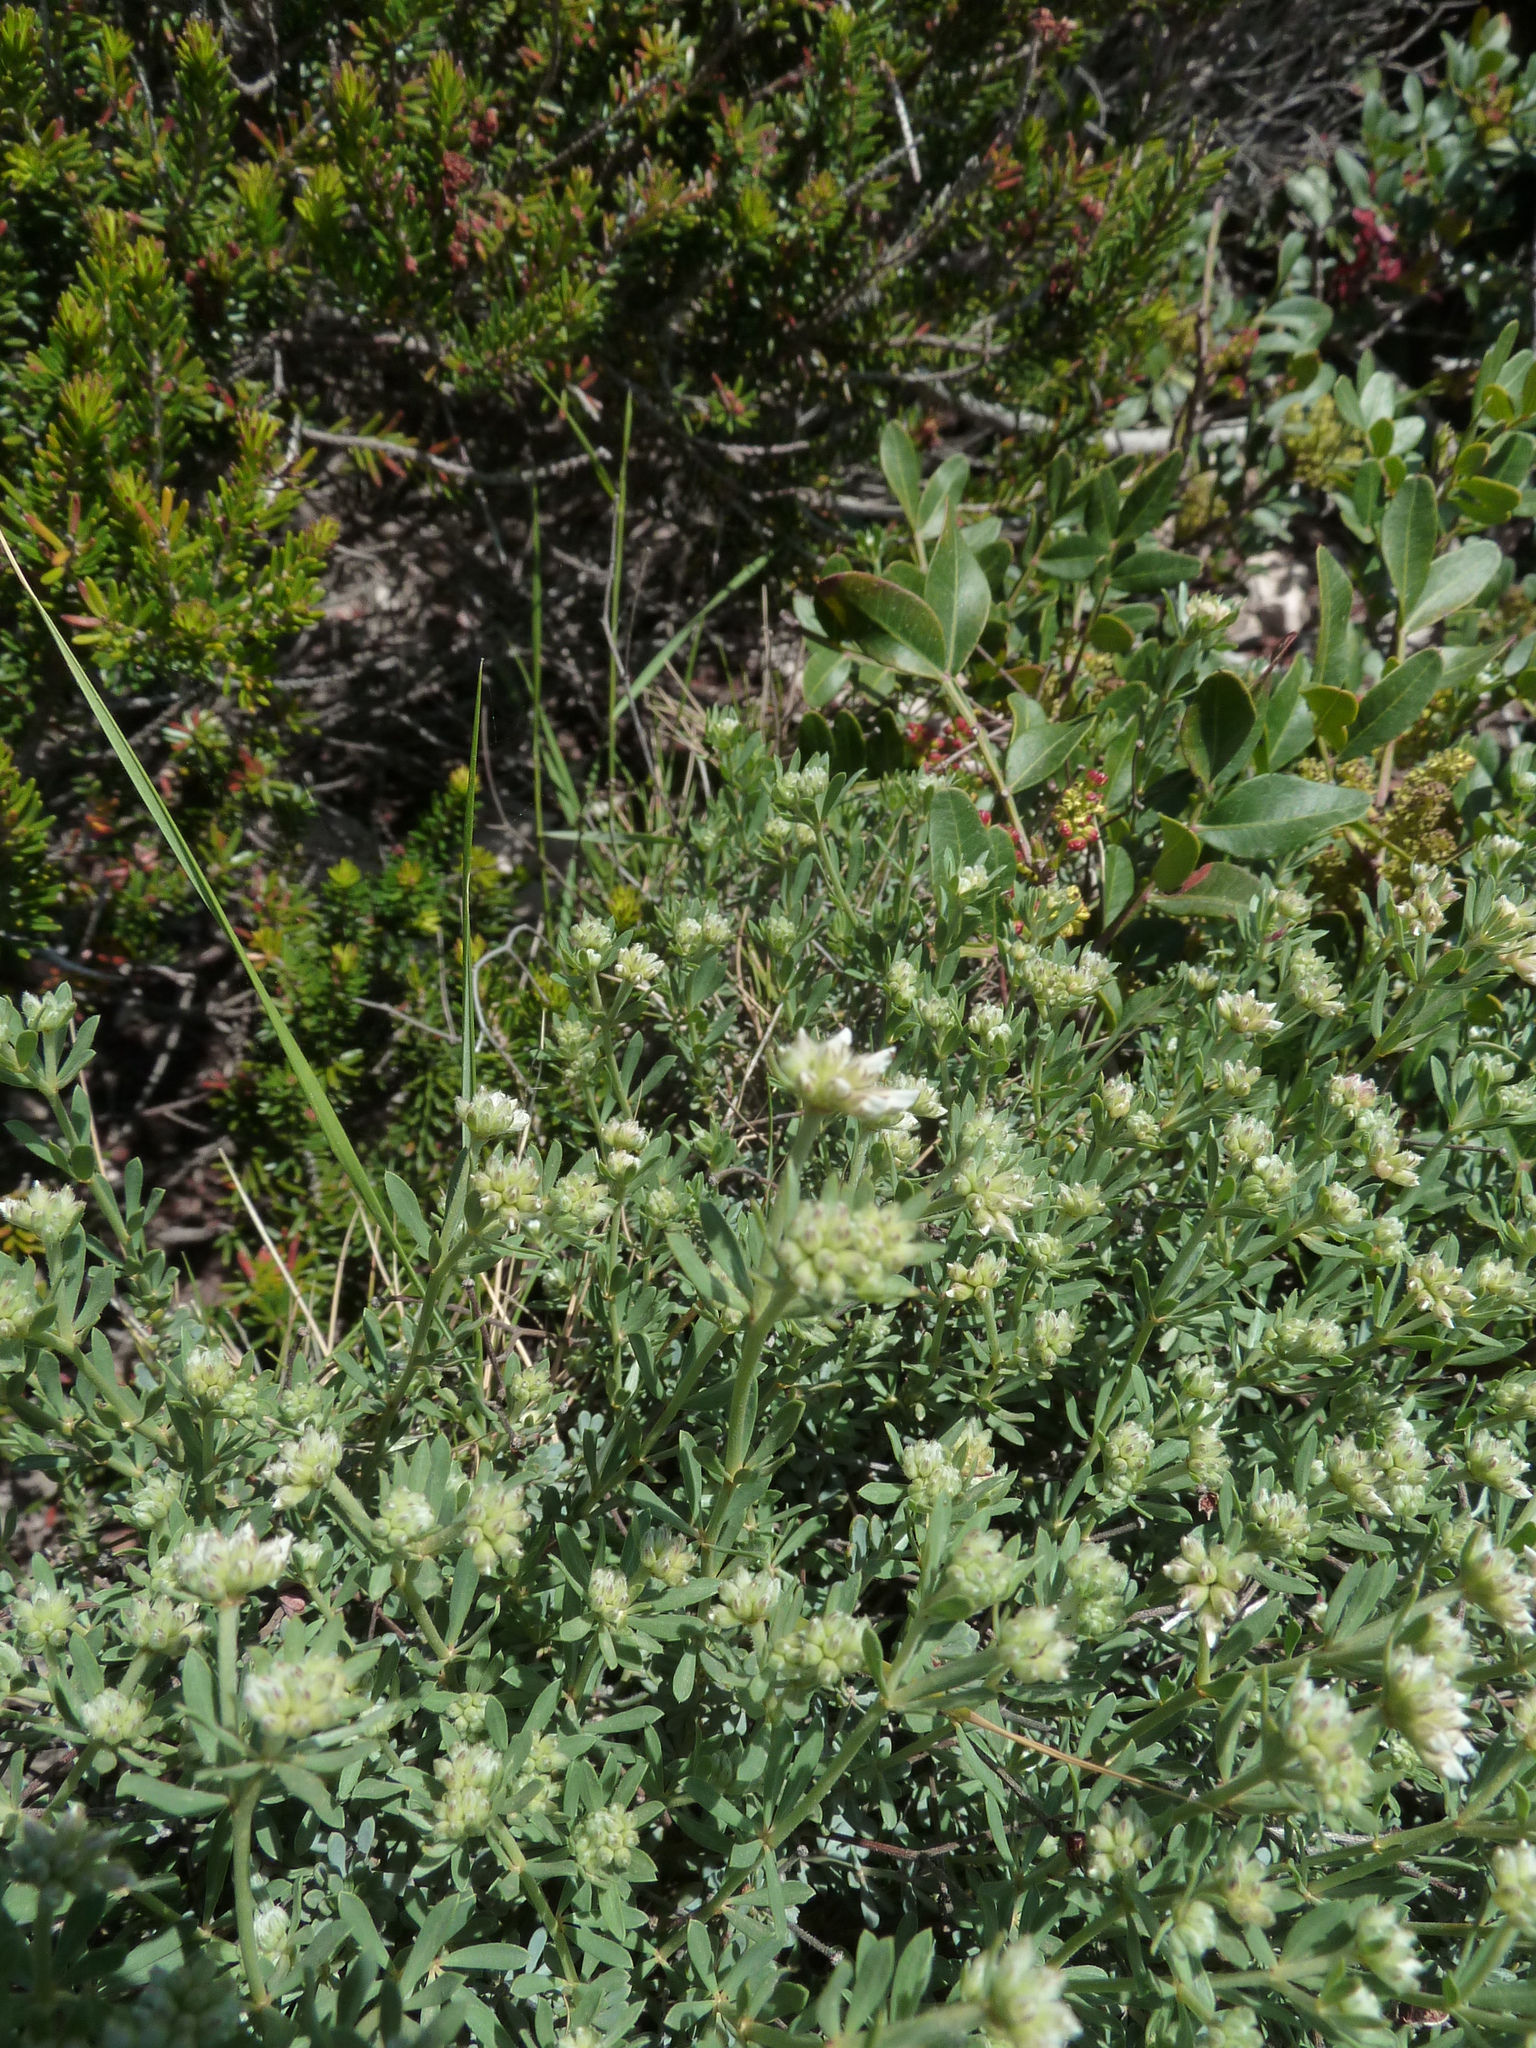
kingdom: Plantae
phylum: Tracheophyta
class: Magnoliopsida
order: Fabales
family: Fabaceae
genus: Lotus
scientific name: Lotus dorycnium
